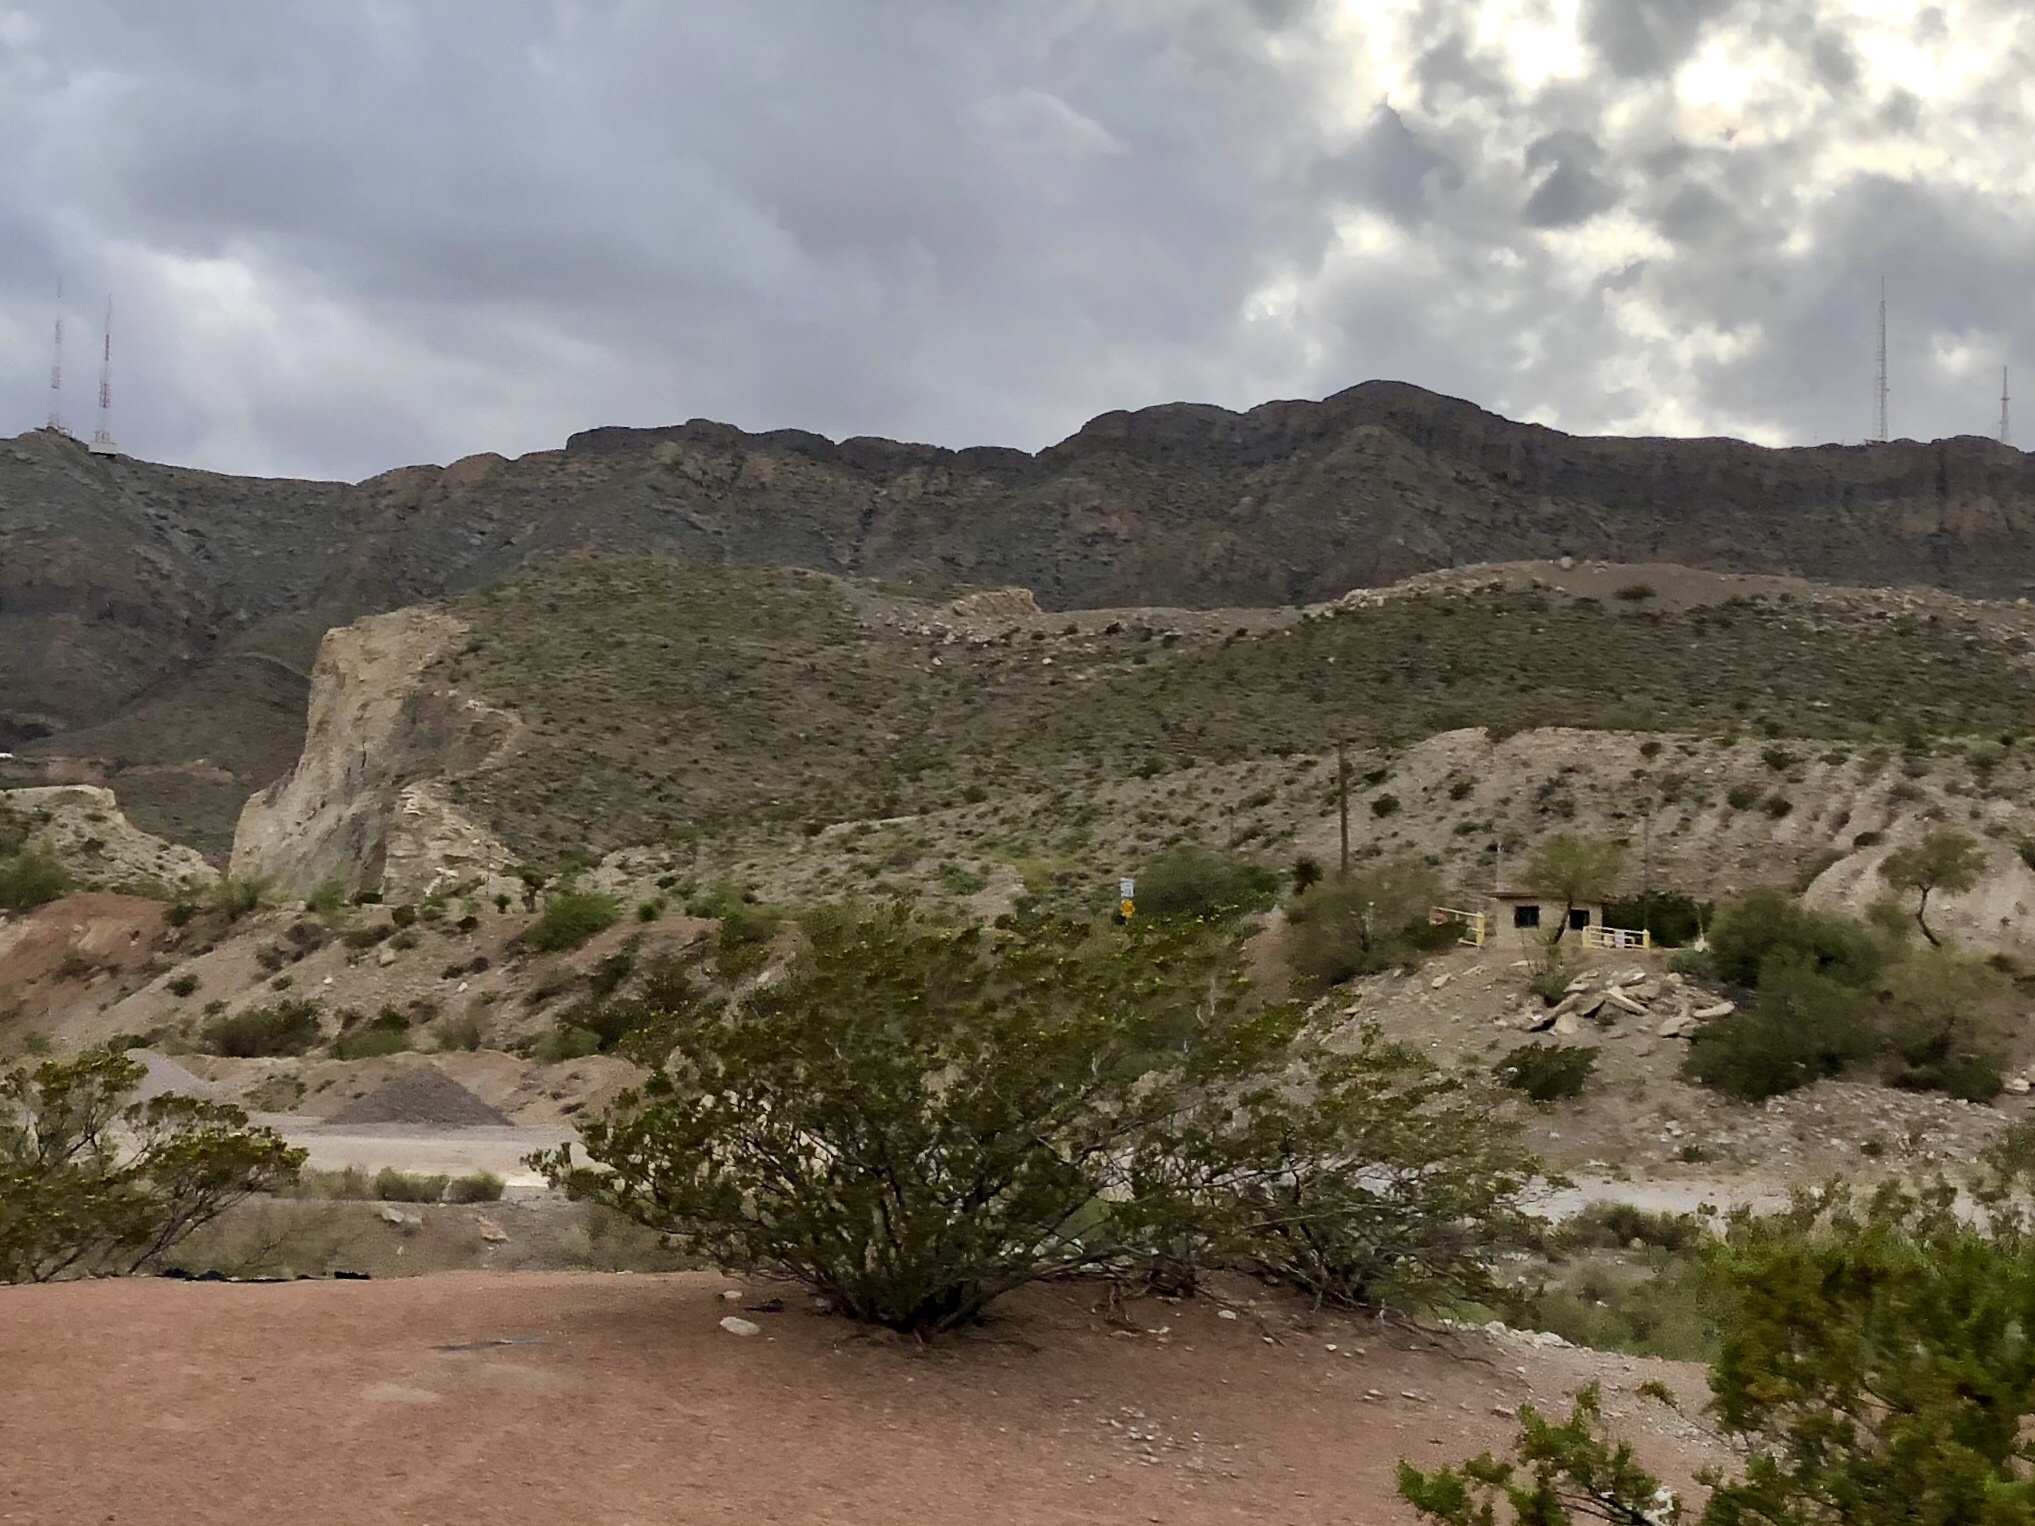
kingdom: Plantae
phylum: Tracheophyta
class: Magnoliopsida
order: Zygophyllales
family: Zygophyllaceae
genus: Larrea
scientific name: Larrea tridentata
